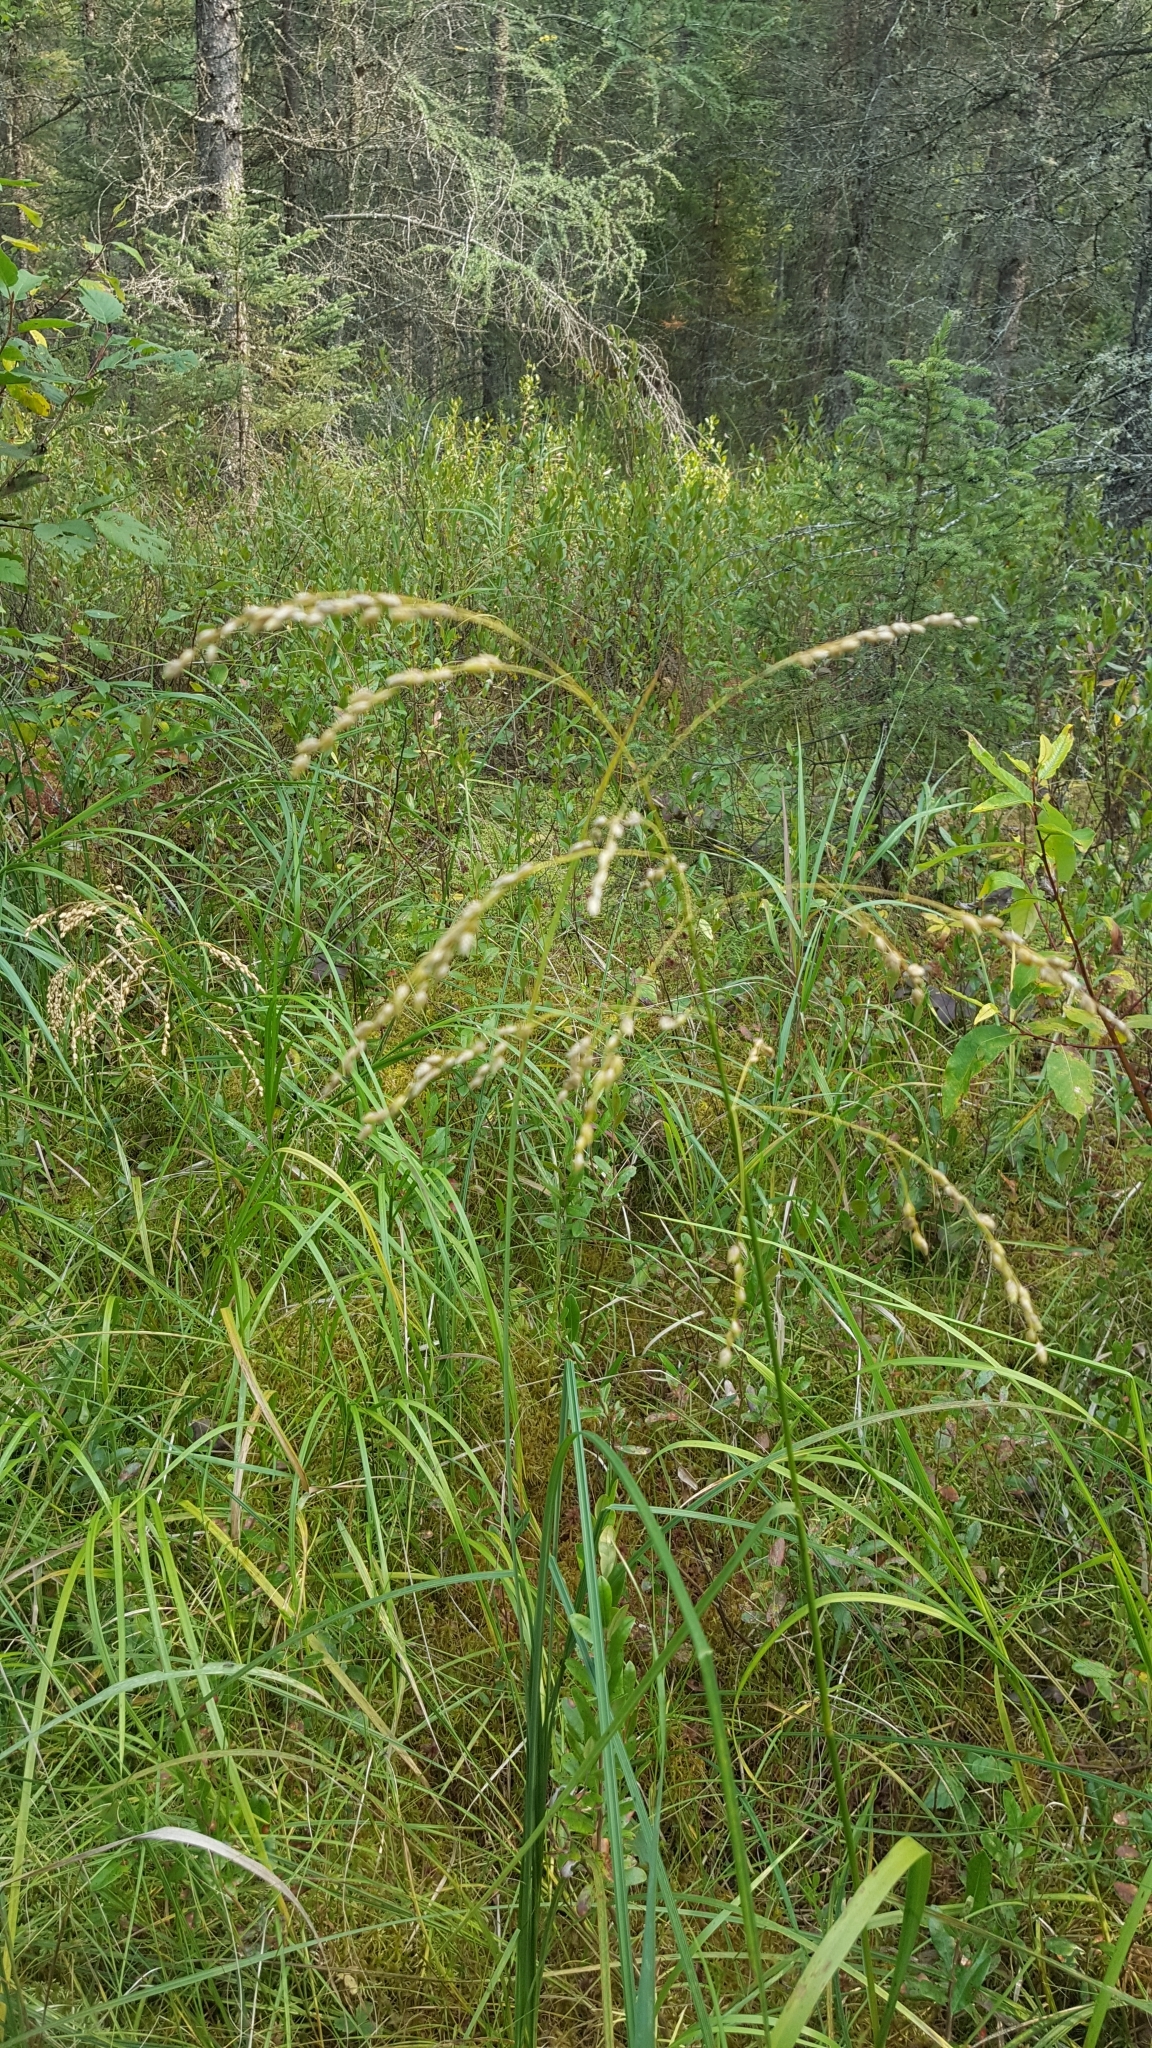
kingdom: Plantae
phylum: Tracheophyta
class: Liliopsida
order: Poales
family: Poaceae
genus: Glyceria
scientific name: Glyceria canadensis
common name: Canada mannagrass
